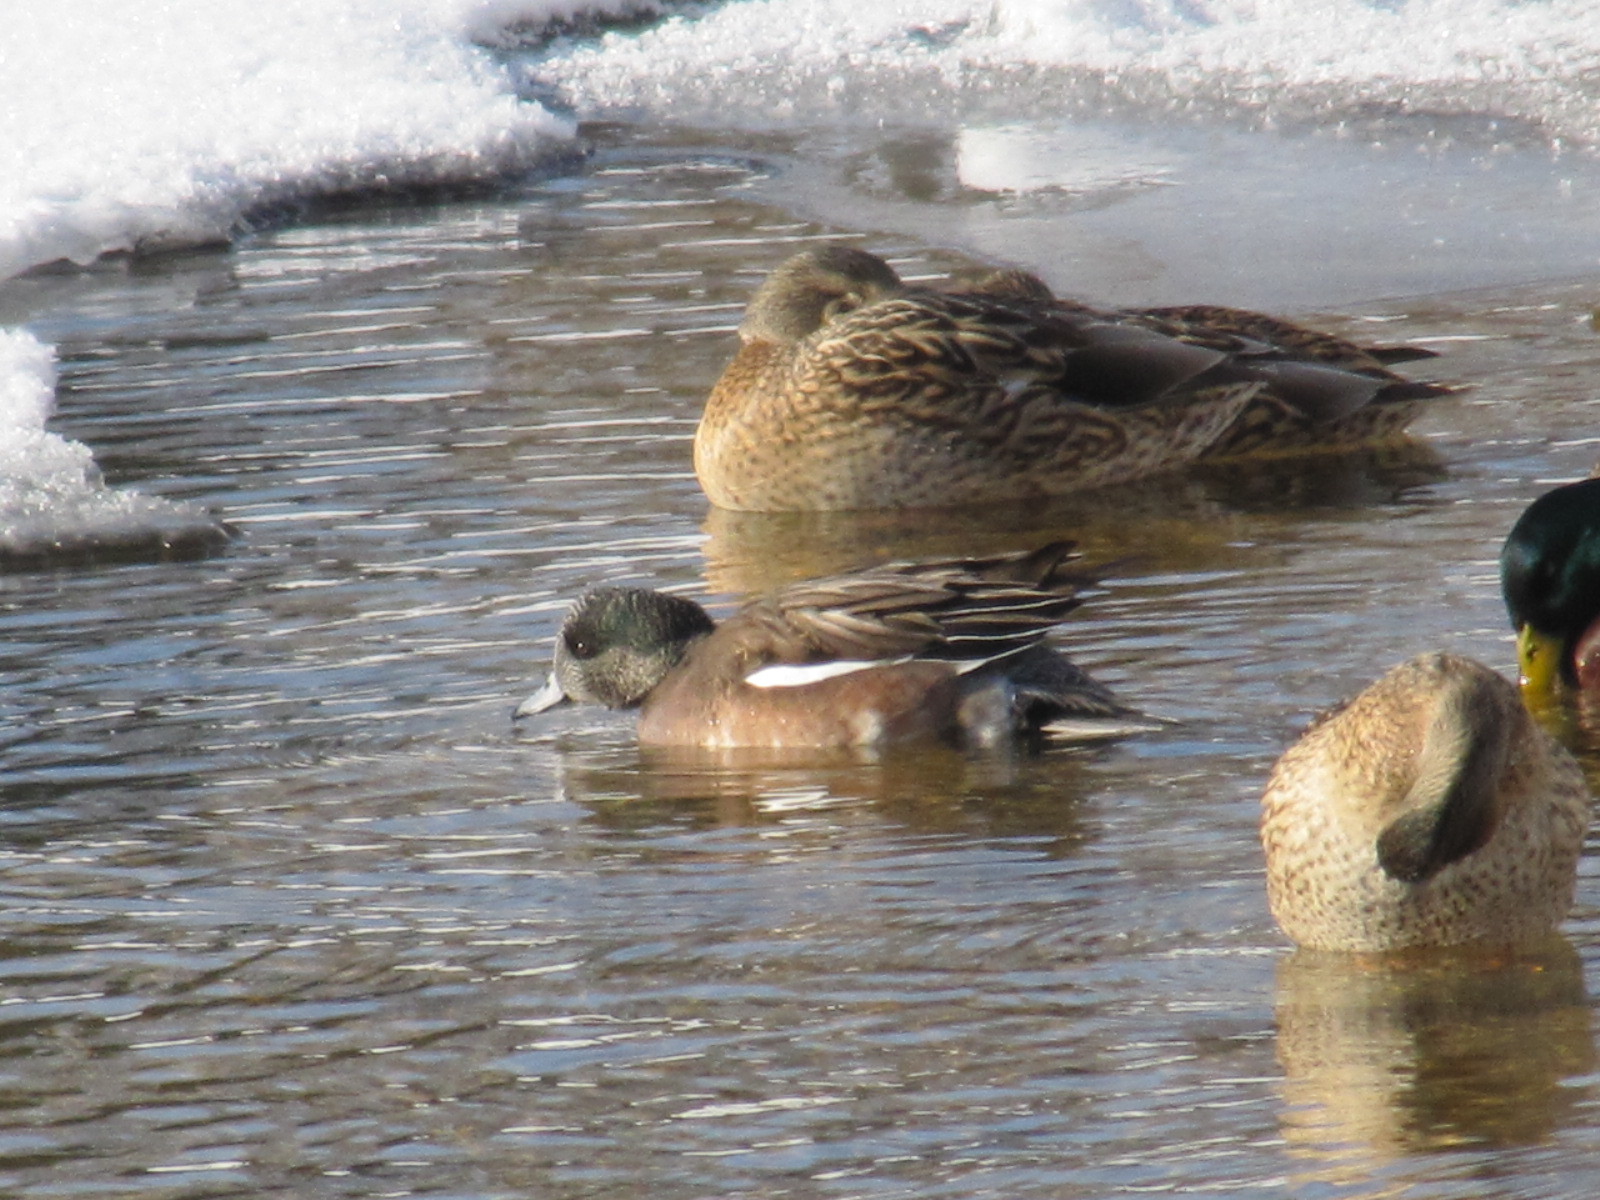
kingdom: Animalia
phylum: Chordata
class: Aves
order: Anseriformes
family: Anatidae
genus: Mareca
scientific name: Mareca americana
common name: American wigeon
